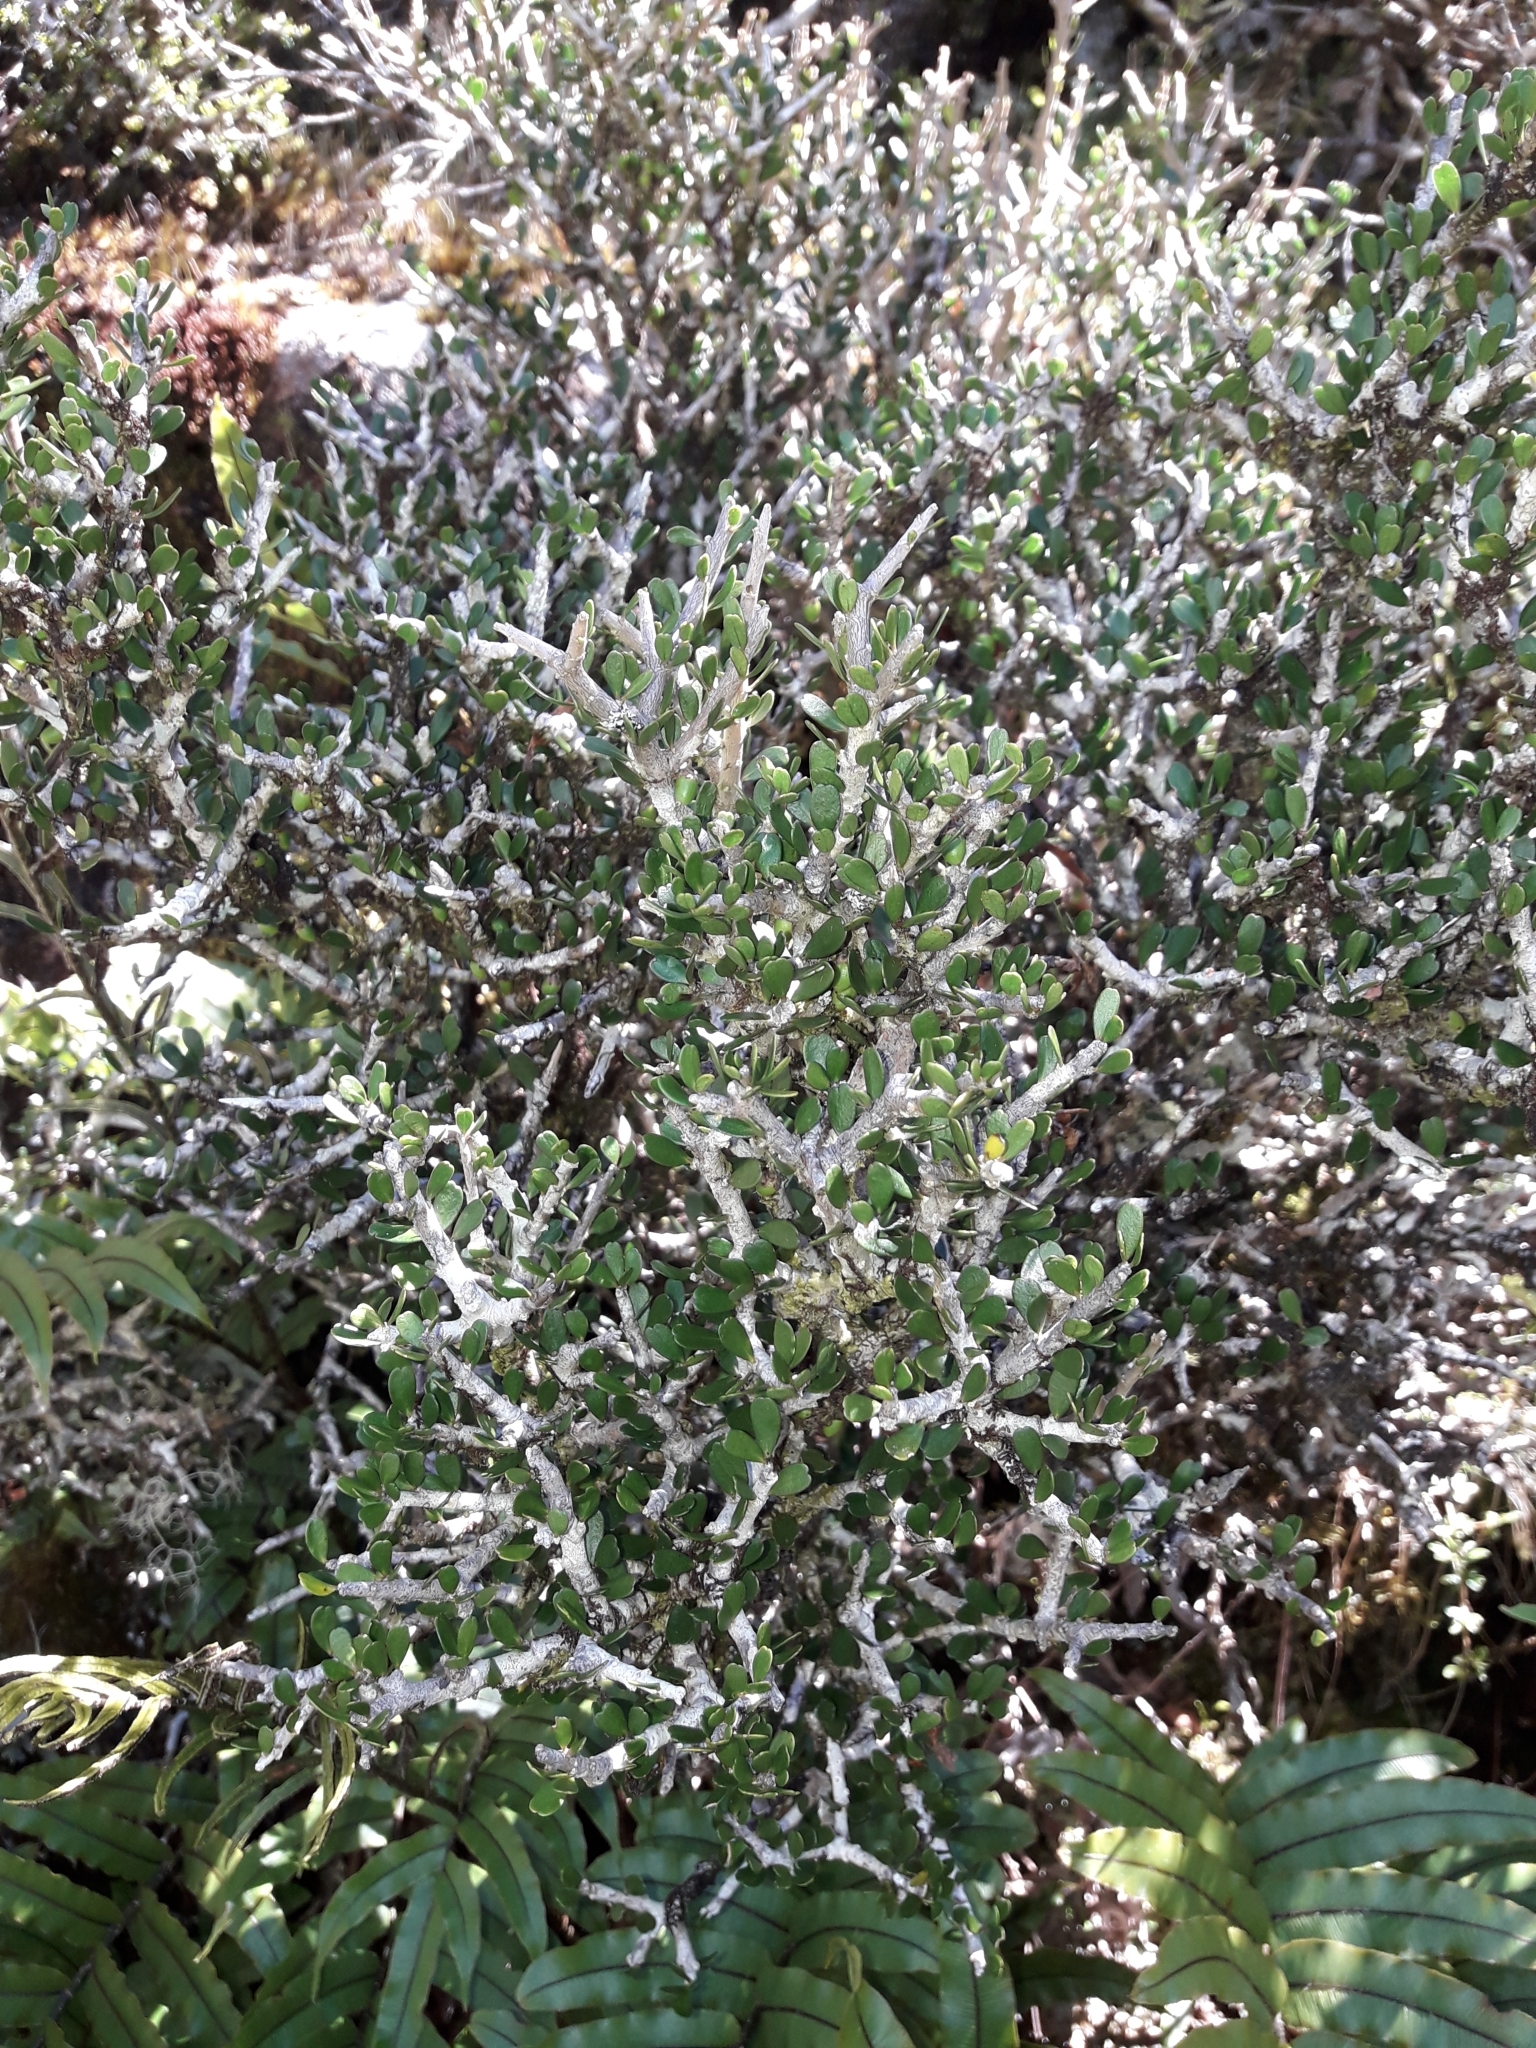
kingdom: Plantae
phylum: Tracheophyta
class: Magnoliopsida
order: Malpighiales
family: Violaceae
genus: Melicytus
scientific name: Melicytus alpinus
